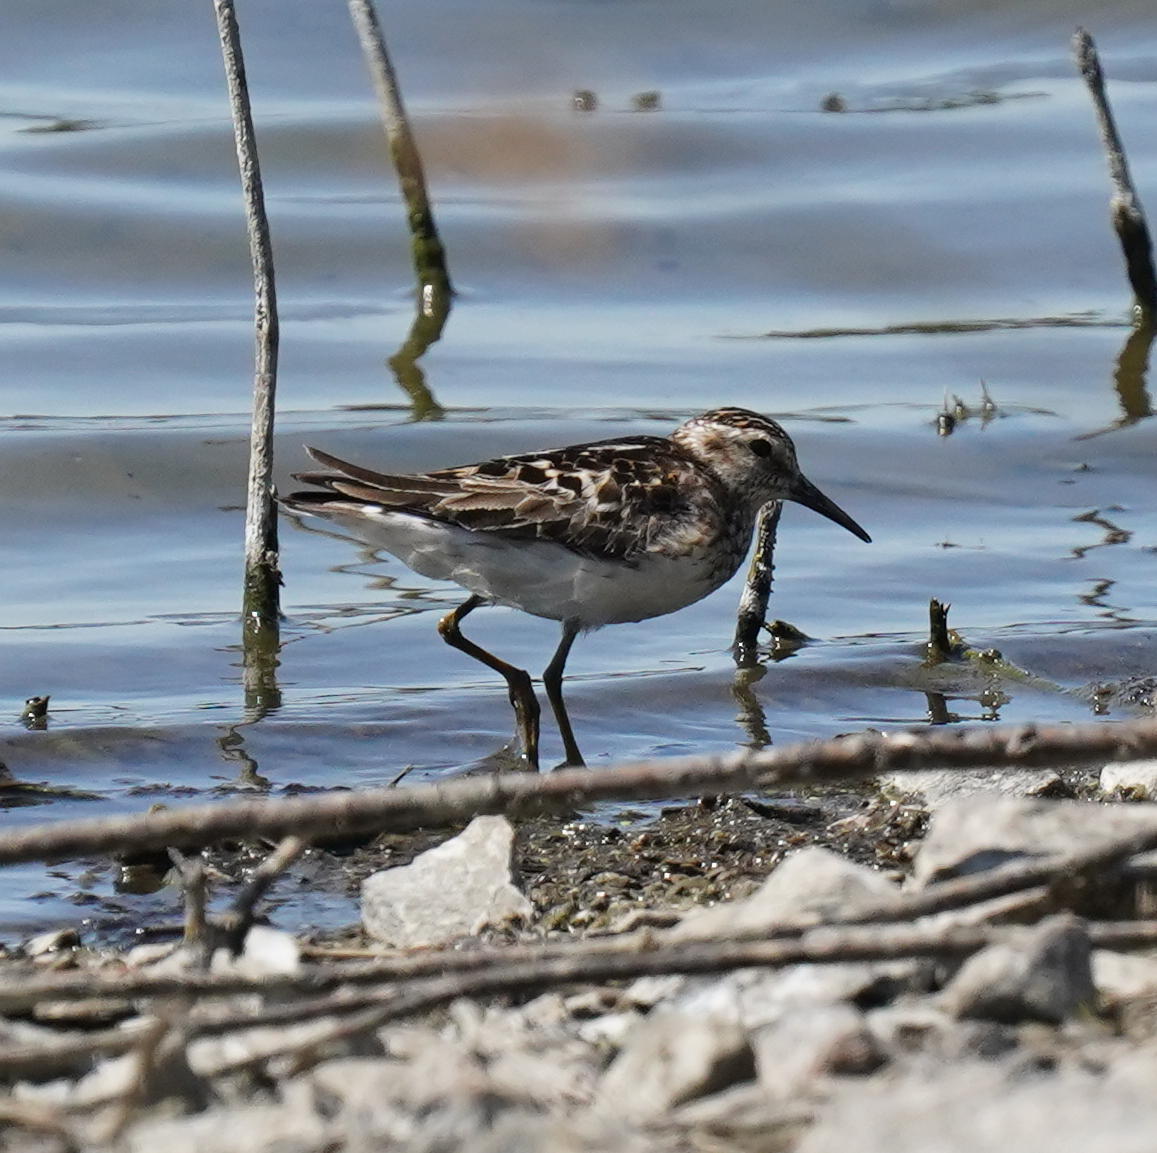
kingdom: Animalia
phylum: Chordata
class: Aves
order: Charadriiformes
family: Scolopacidae
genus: Calidris
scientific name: Calidris minutilla
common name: Least sandpiper
